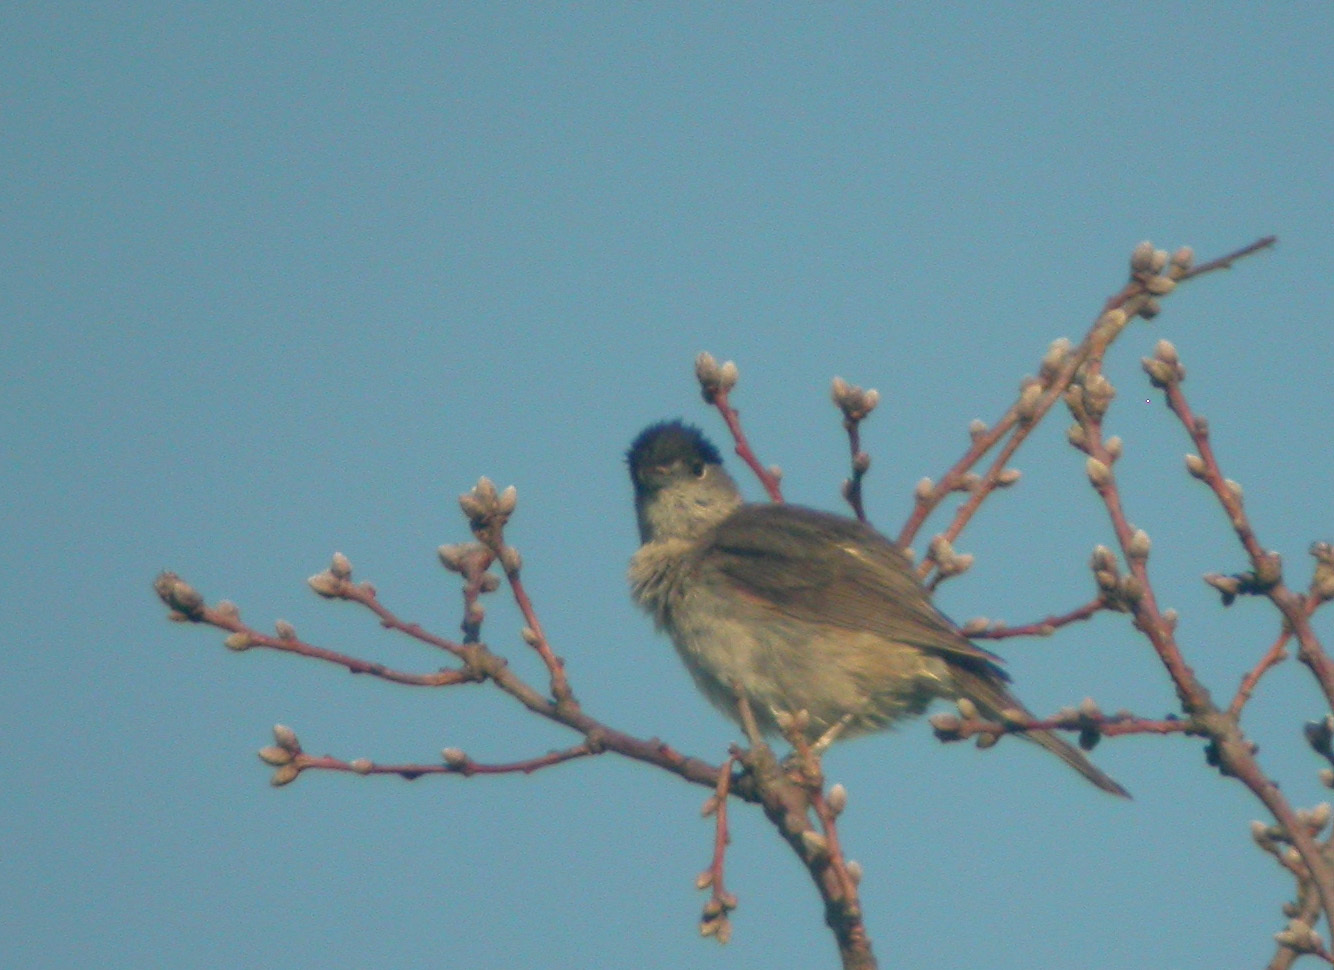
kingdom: Animalia
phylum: Chordata
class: Aves
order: Passeriformes
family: Sylviidae
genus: Sylvia
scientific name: Sylvia atricapilla
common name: Eurasian blackcap
